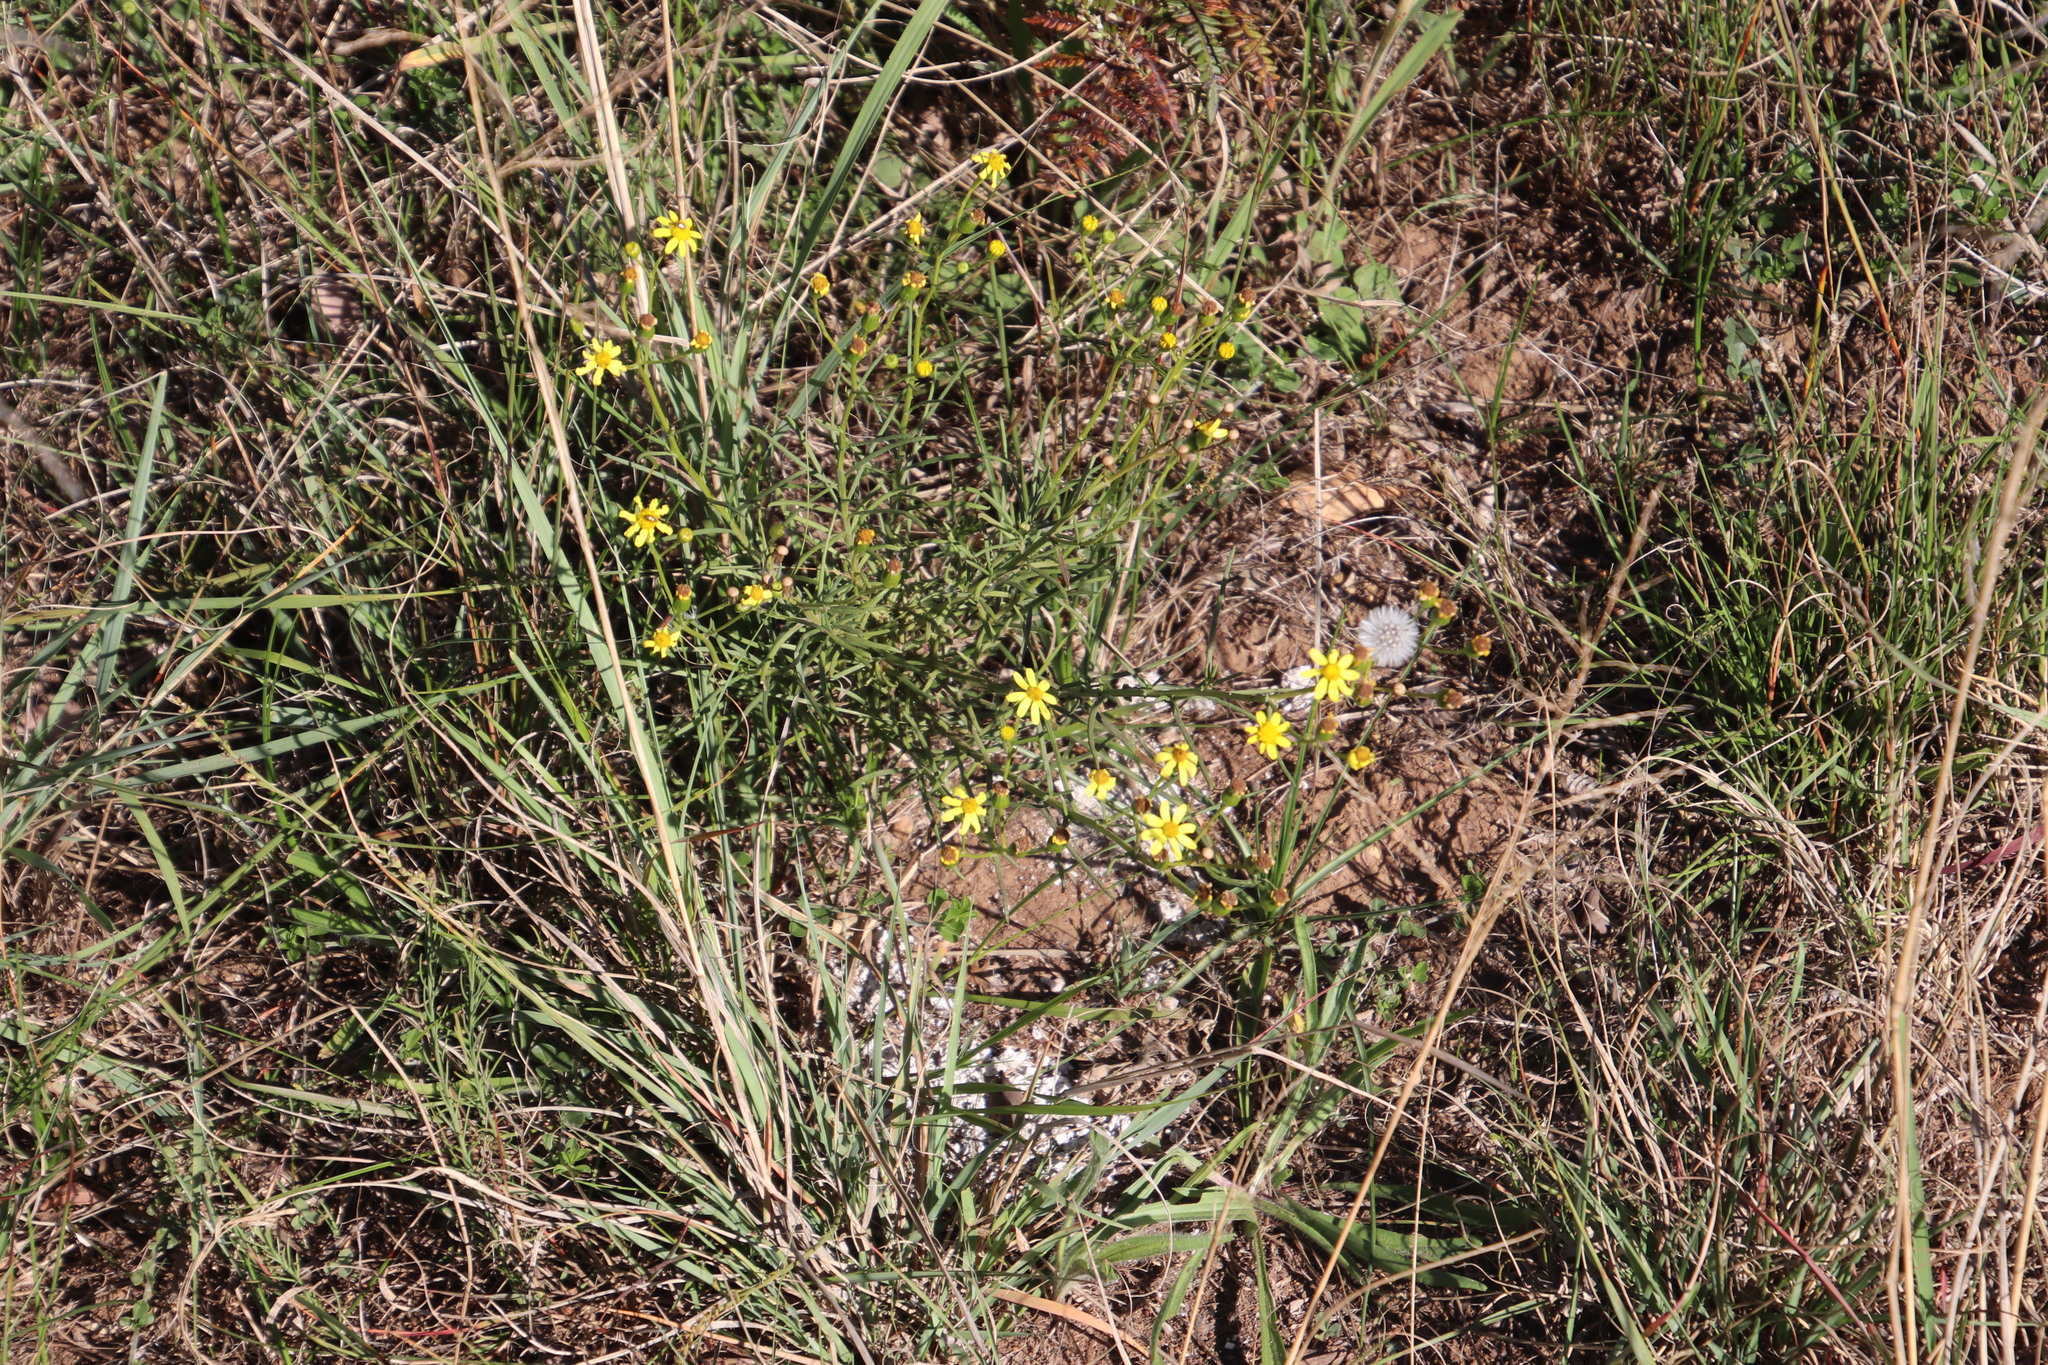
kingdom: Plantae
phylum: Tracheophyta
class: Magnoliopsida
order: Asterales
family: Asteraceae
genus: Senecio
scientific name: Senecio burchellii
